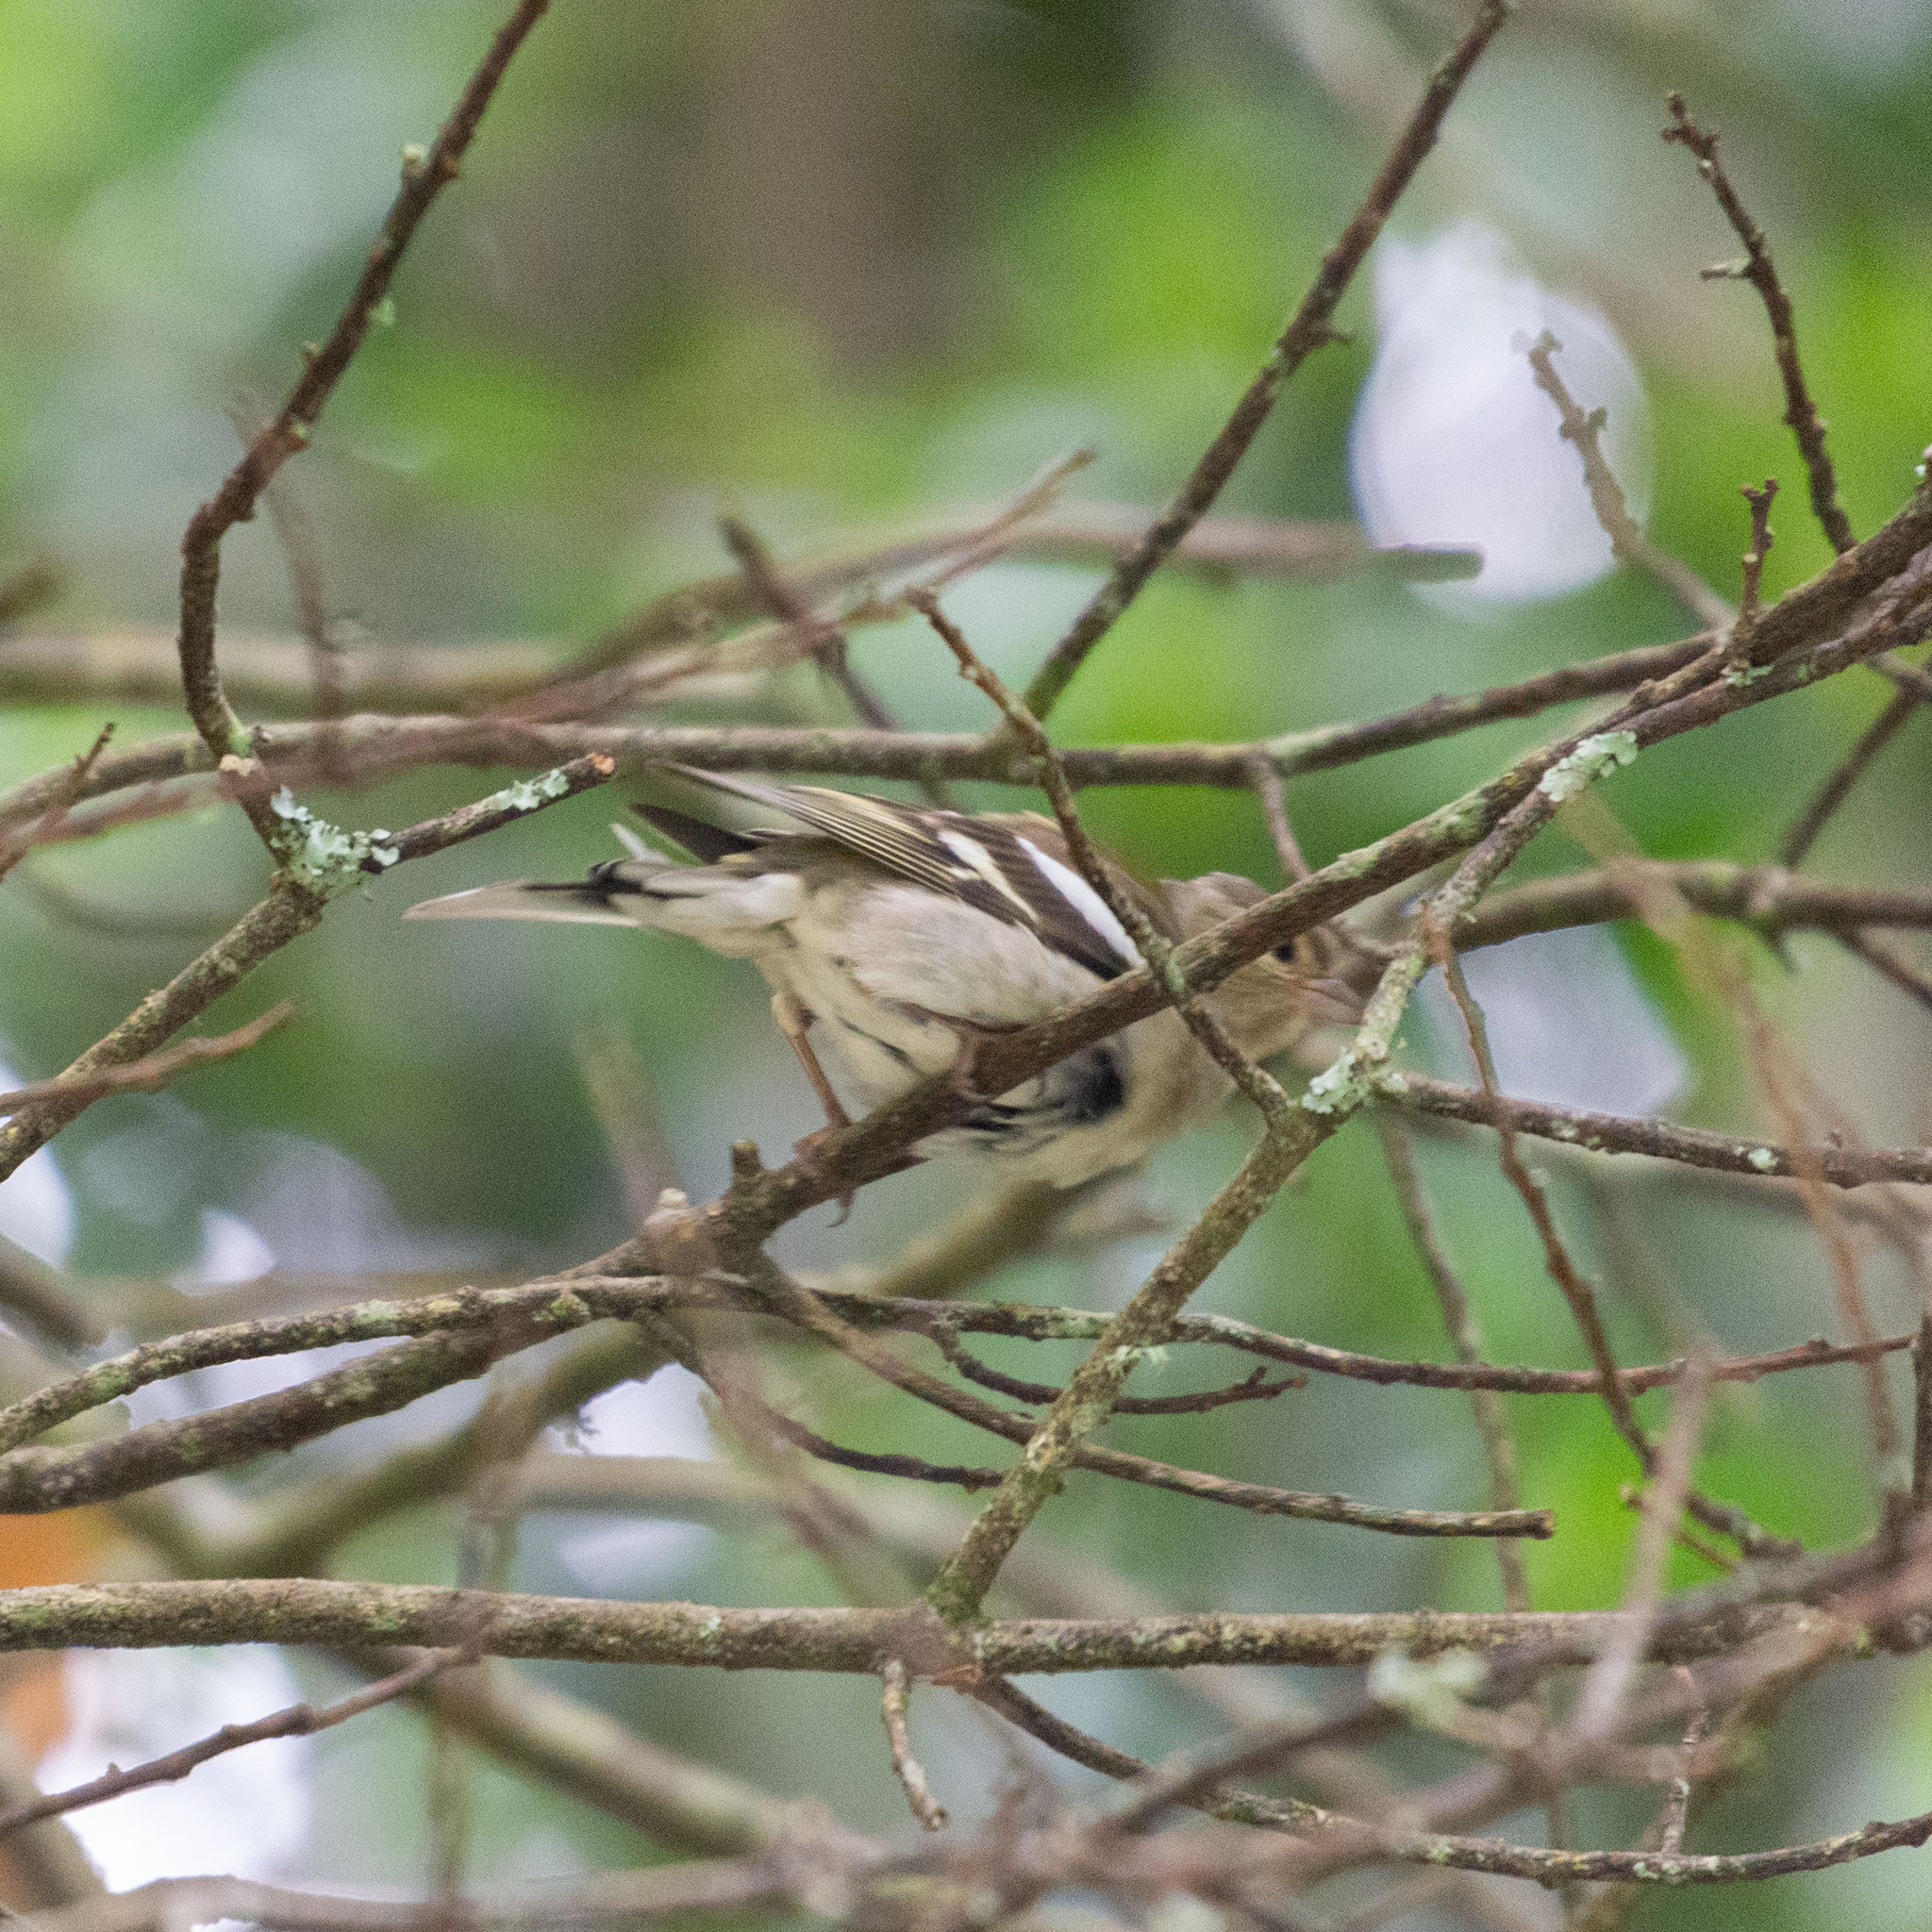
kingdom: Animalia
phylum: Chordata
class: Aves
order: Passeriformes
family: Fringillidae
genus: Fringilla
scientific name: Fringilla coelebs
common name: Common chaffinch
